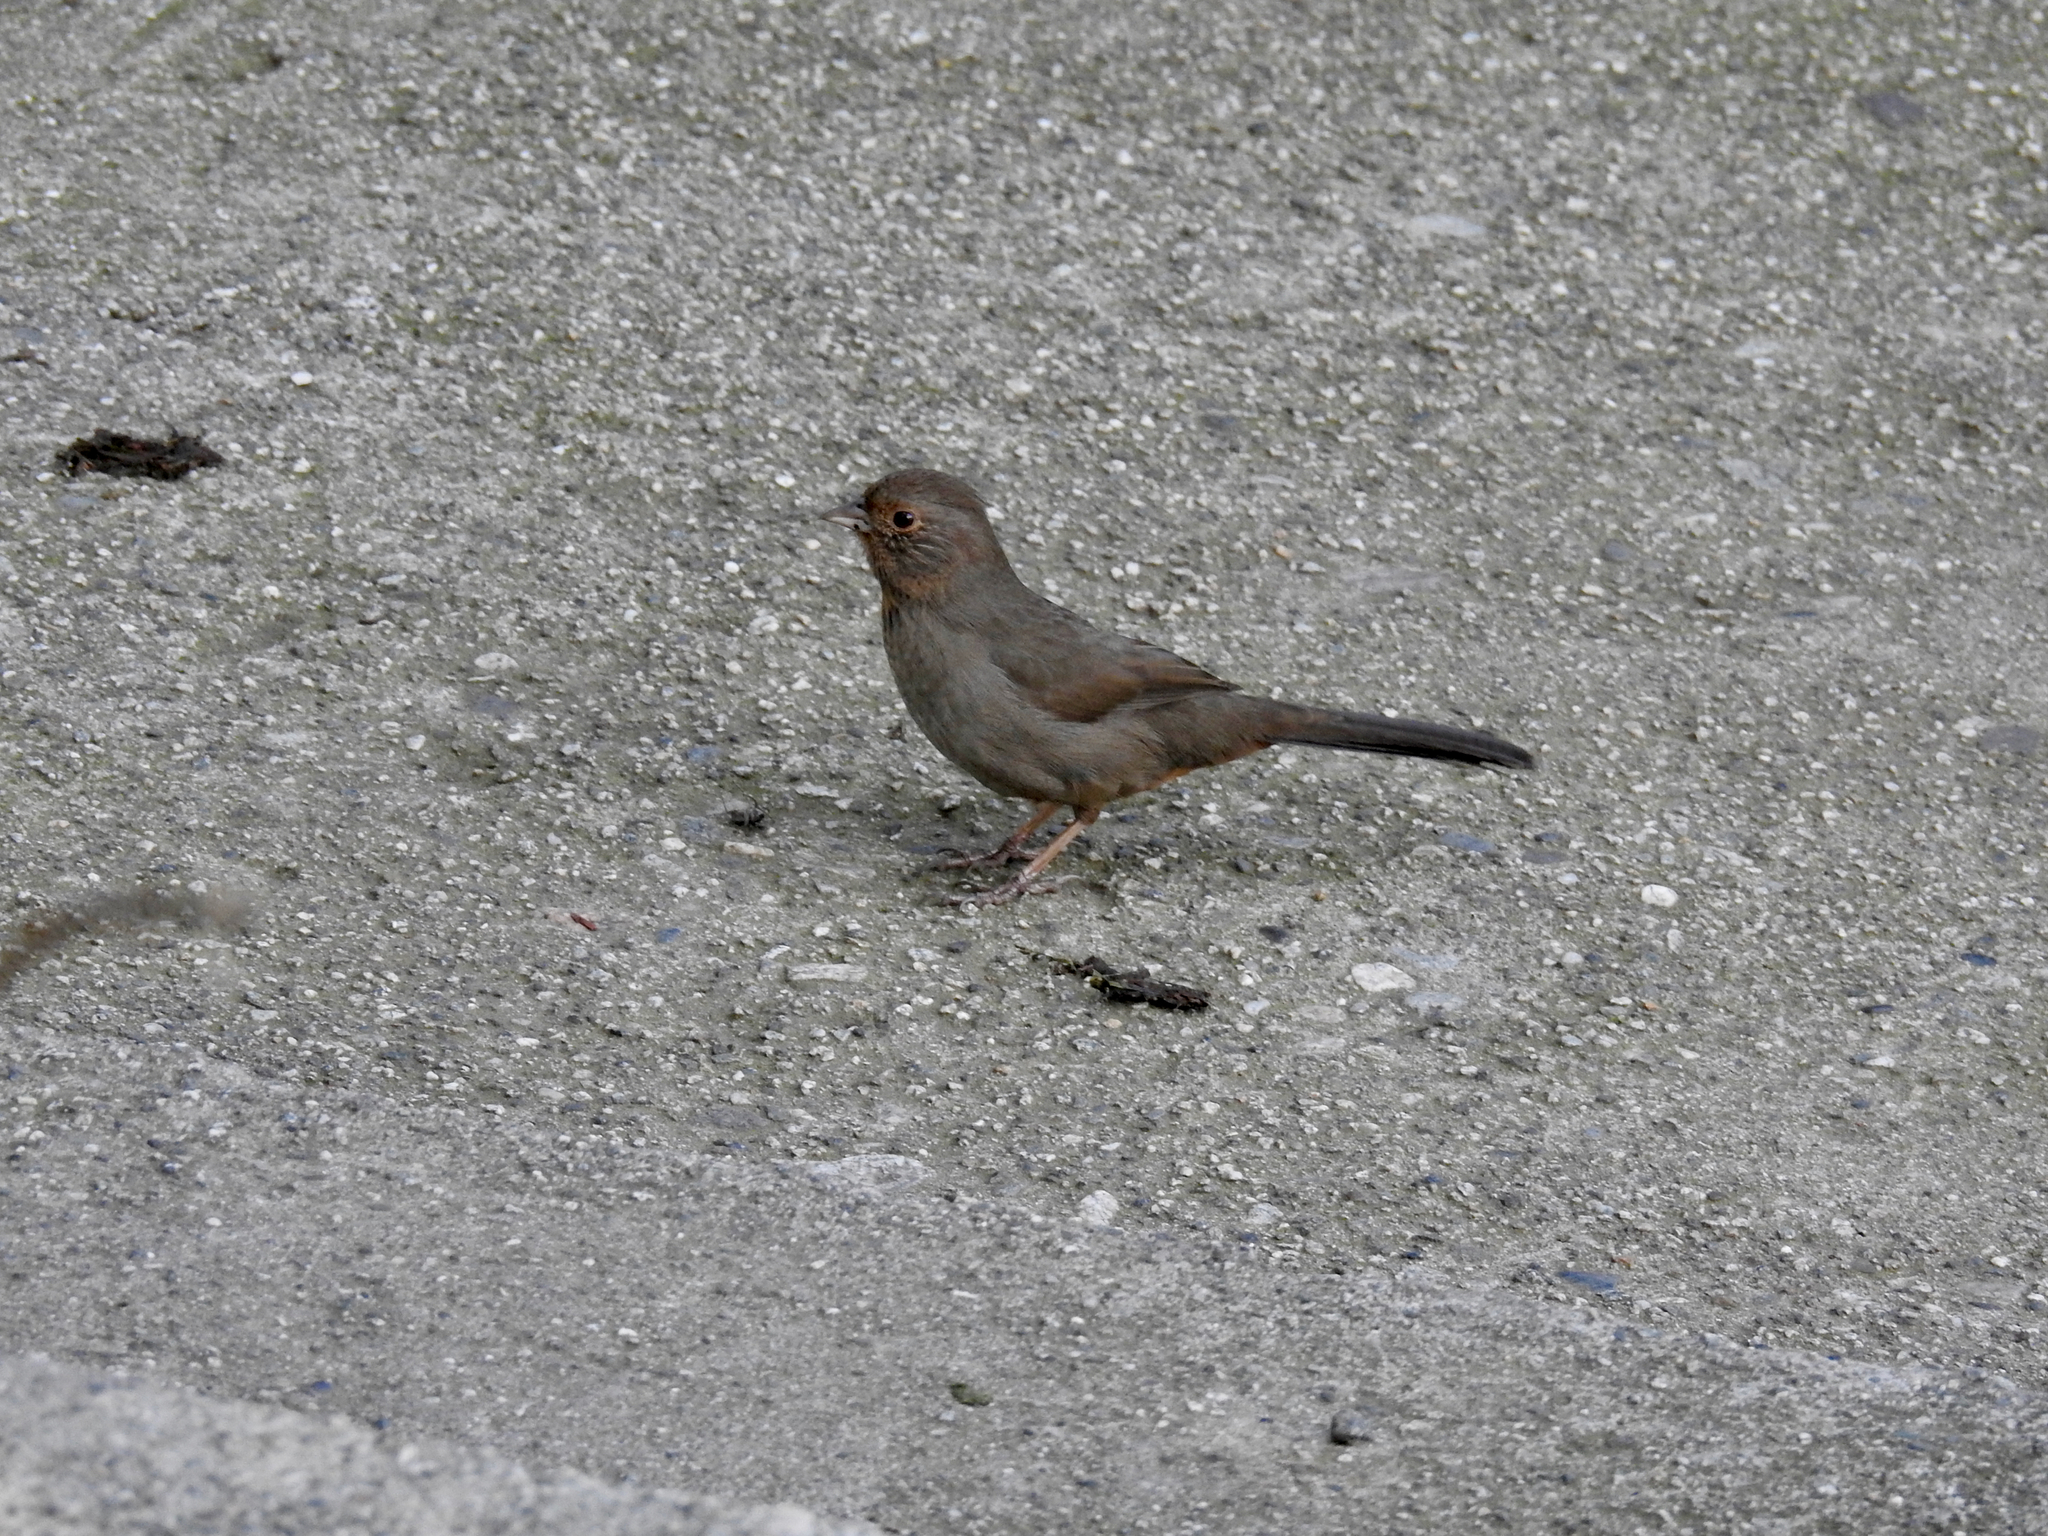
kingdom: Animalia
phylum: Chordata
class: Aves
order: Passeriformes
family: Passerellidae
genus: Melozone
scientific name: Melozone crissalis
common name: California towhee
